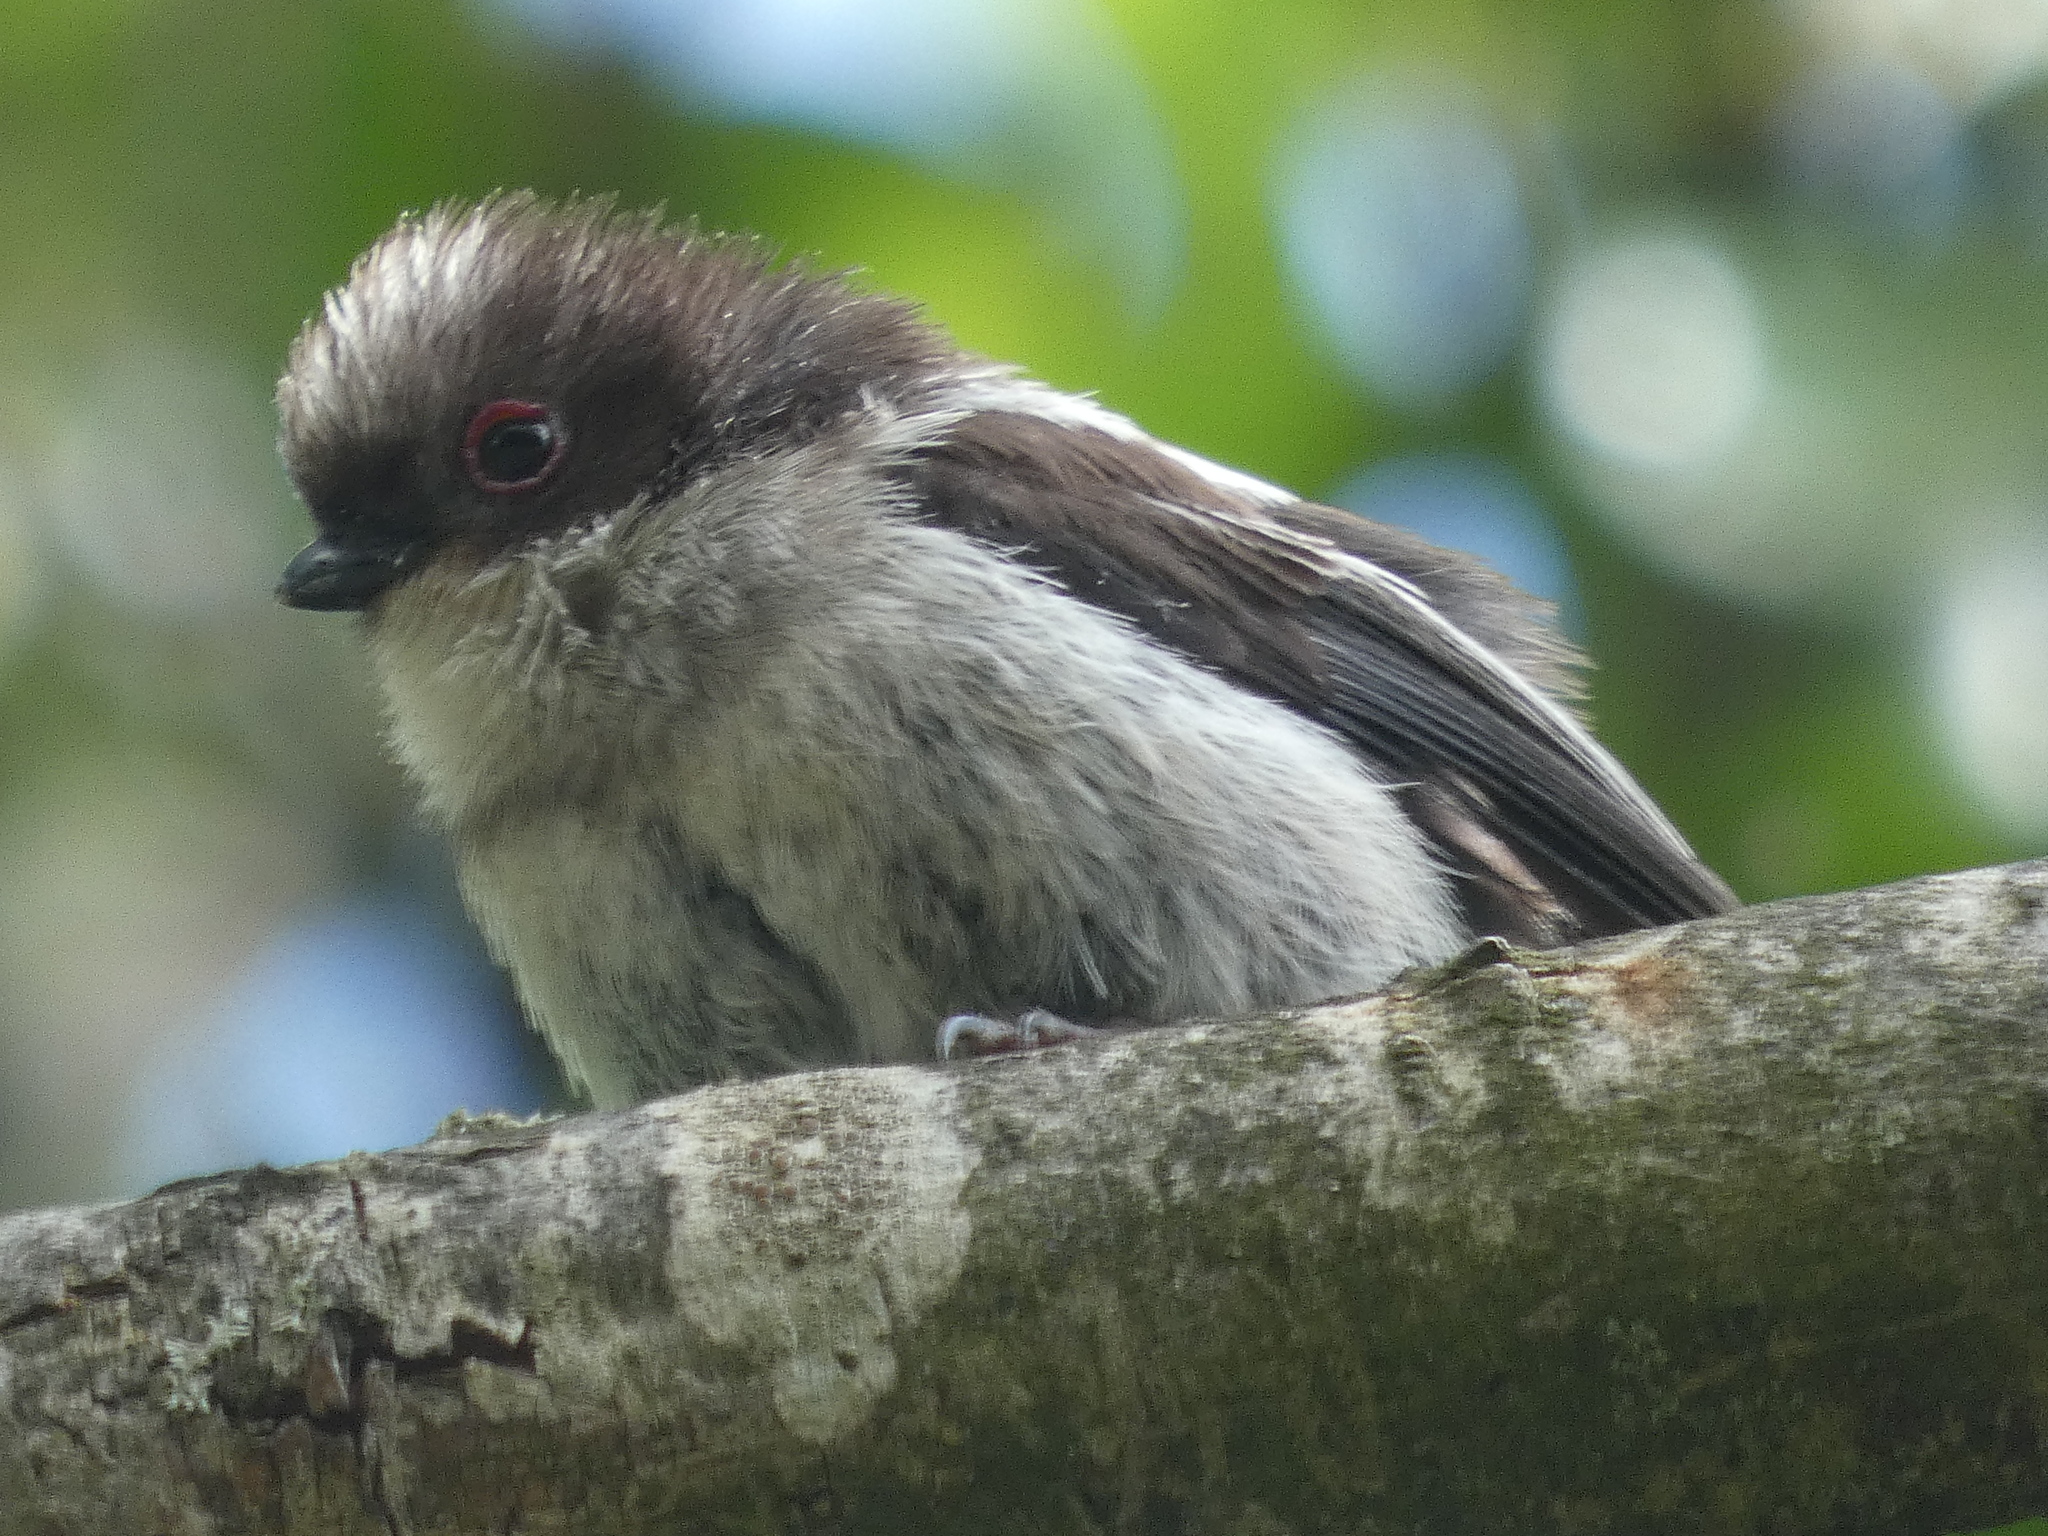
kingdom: Animalia
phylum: Chordata
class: Aves
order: Passeriformes
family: Aegithalidae
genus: Aegithalos
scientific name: Aegithalos caudatus
